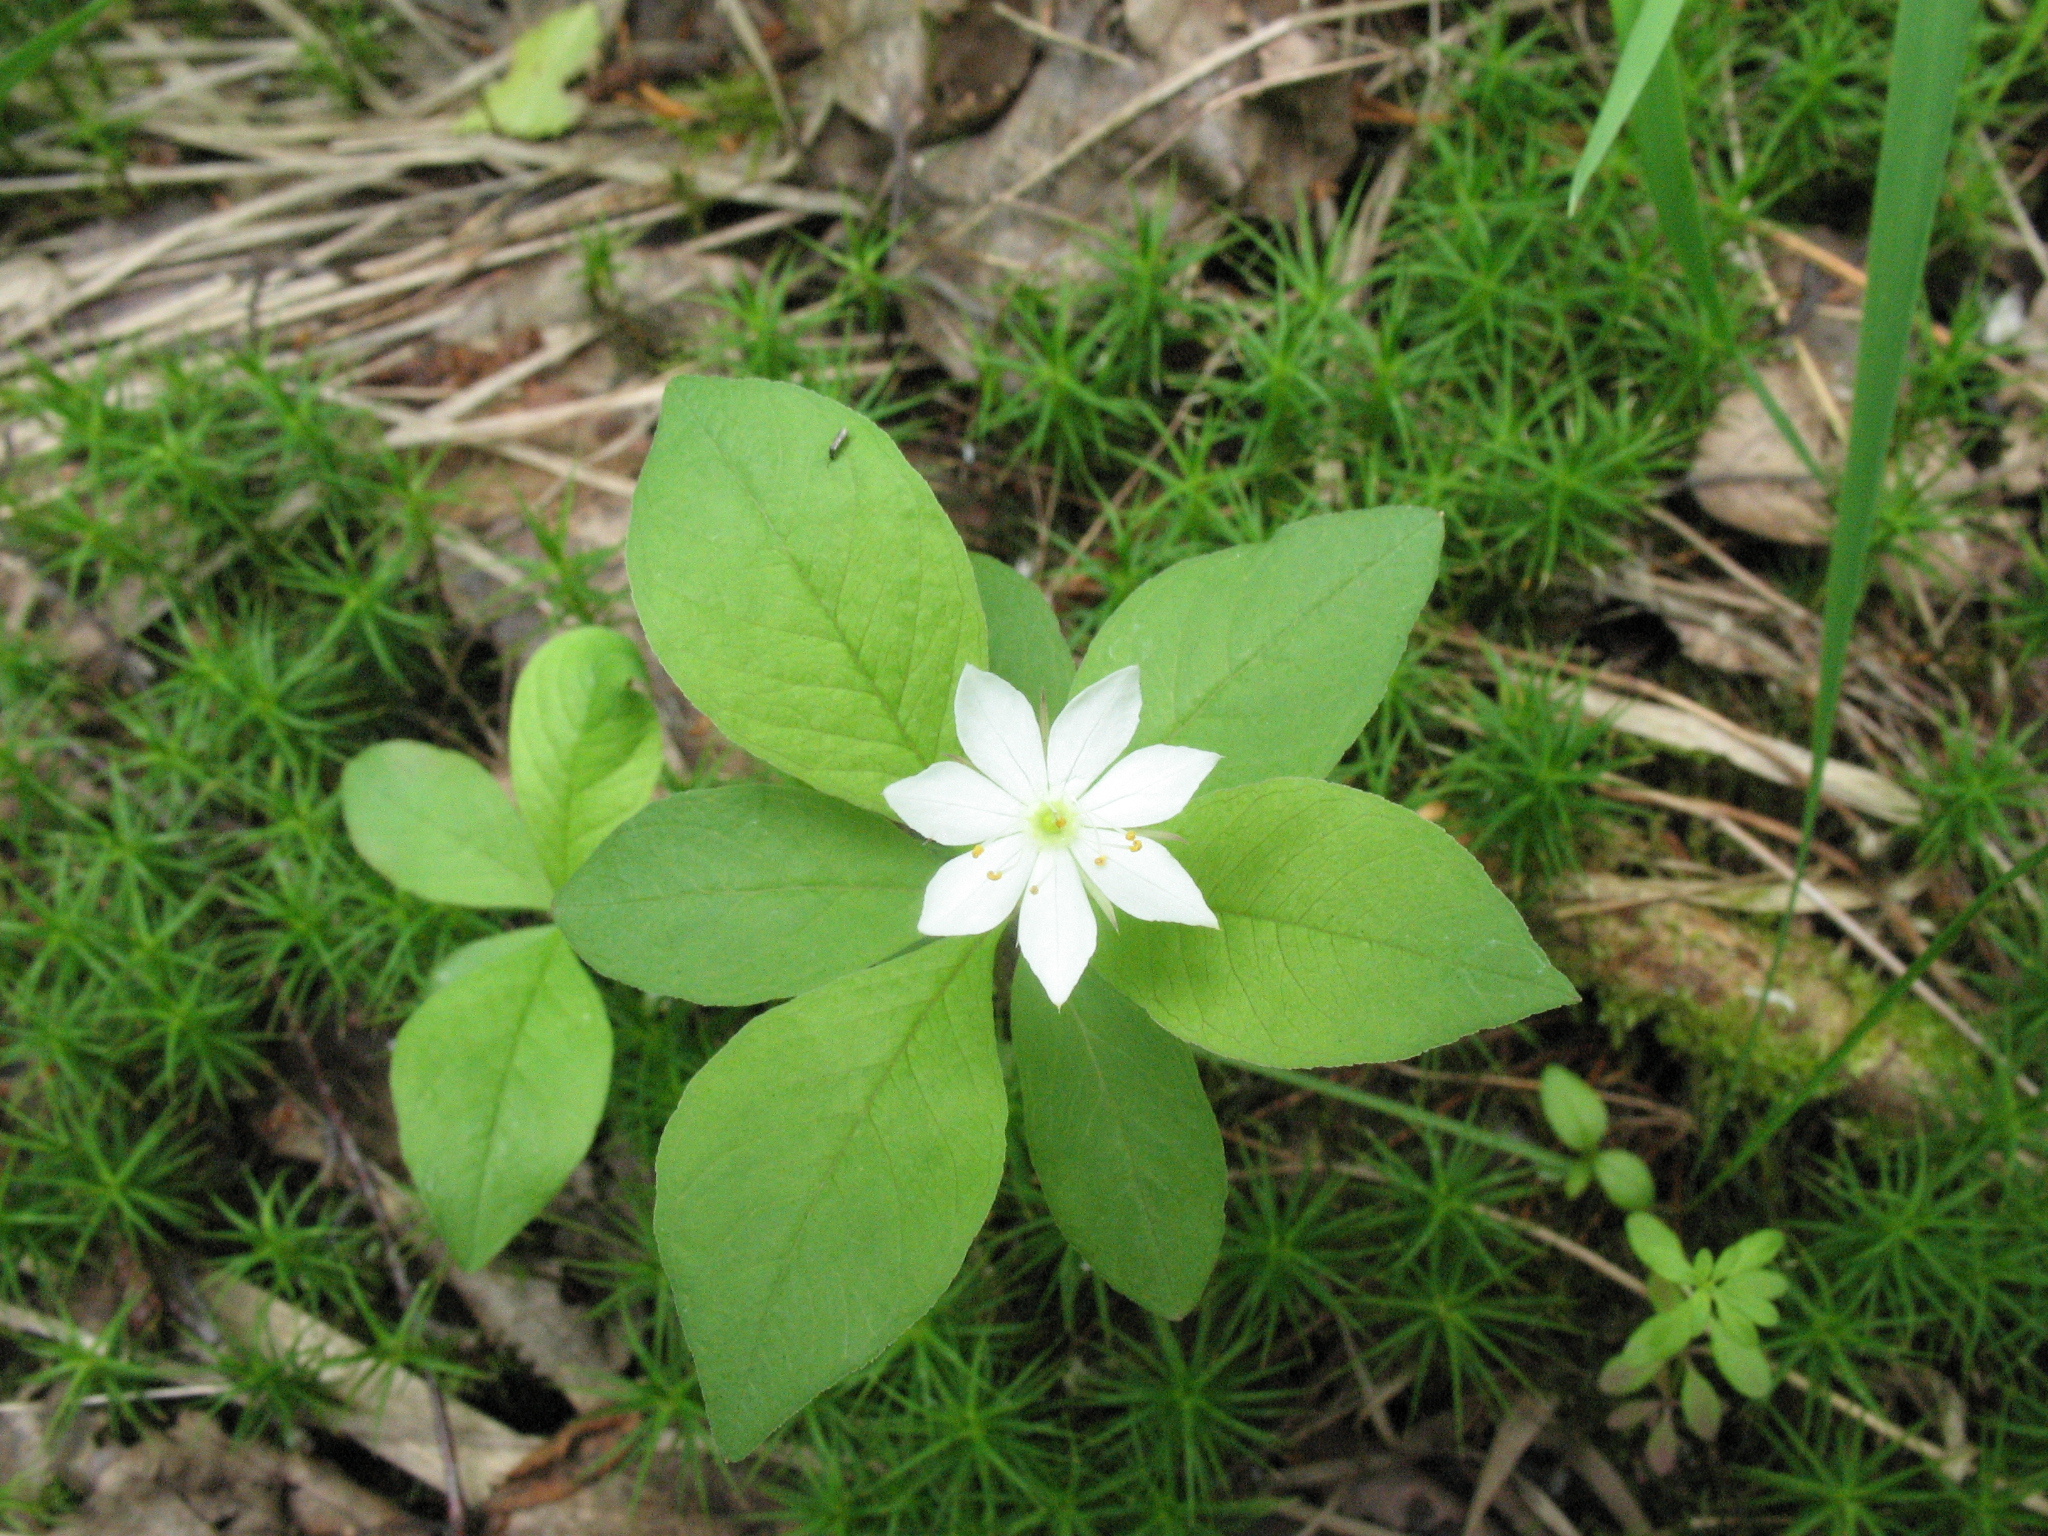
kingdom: Plantae
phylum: Tracheophyta
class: Magnoliopsida
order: Ericales
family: Primulaceae
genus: Lysimachia
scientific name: Lysimachia europaea
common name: Arctic starflower
